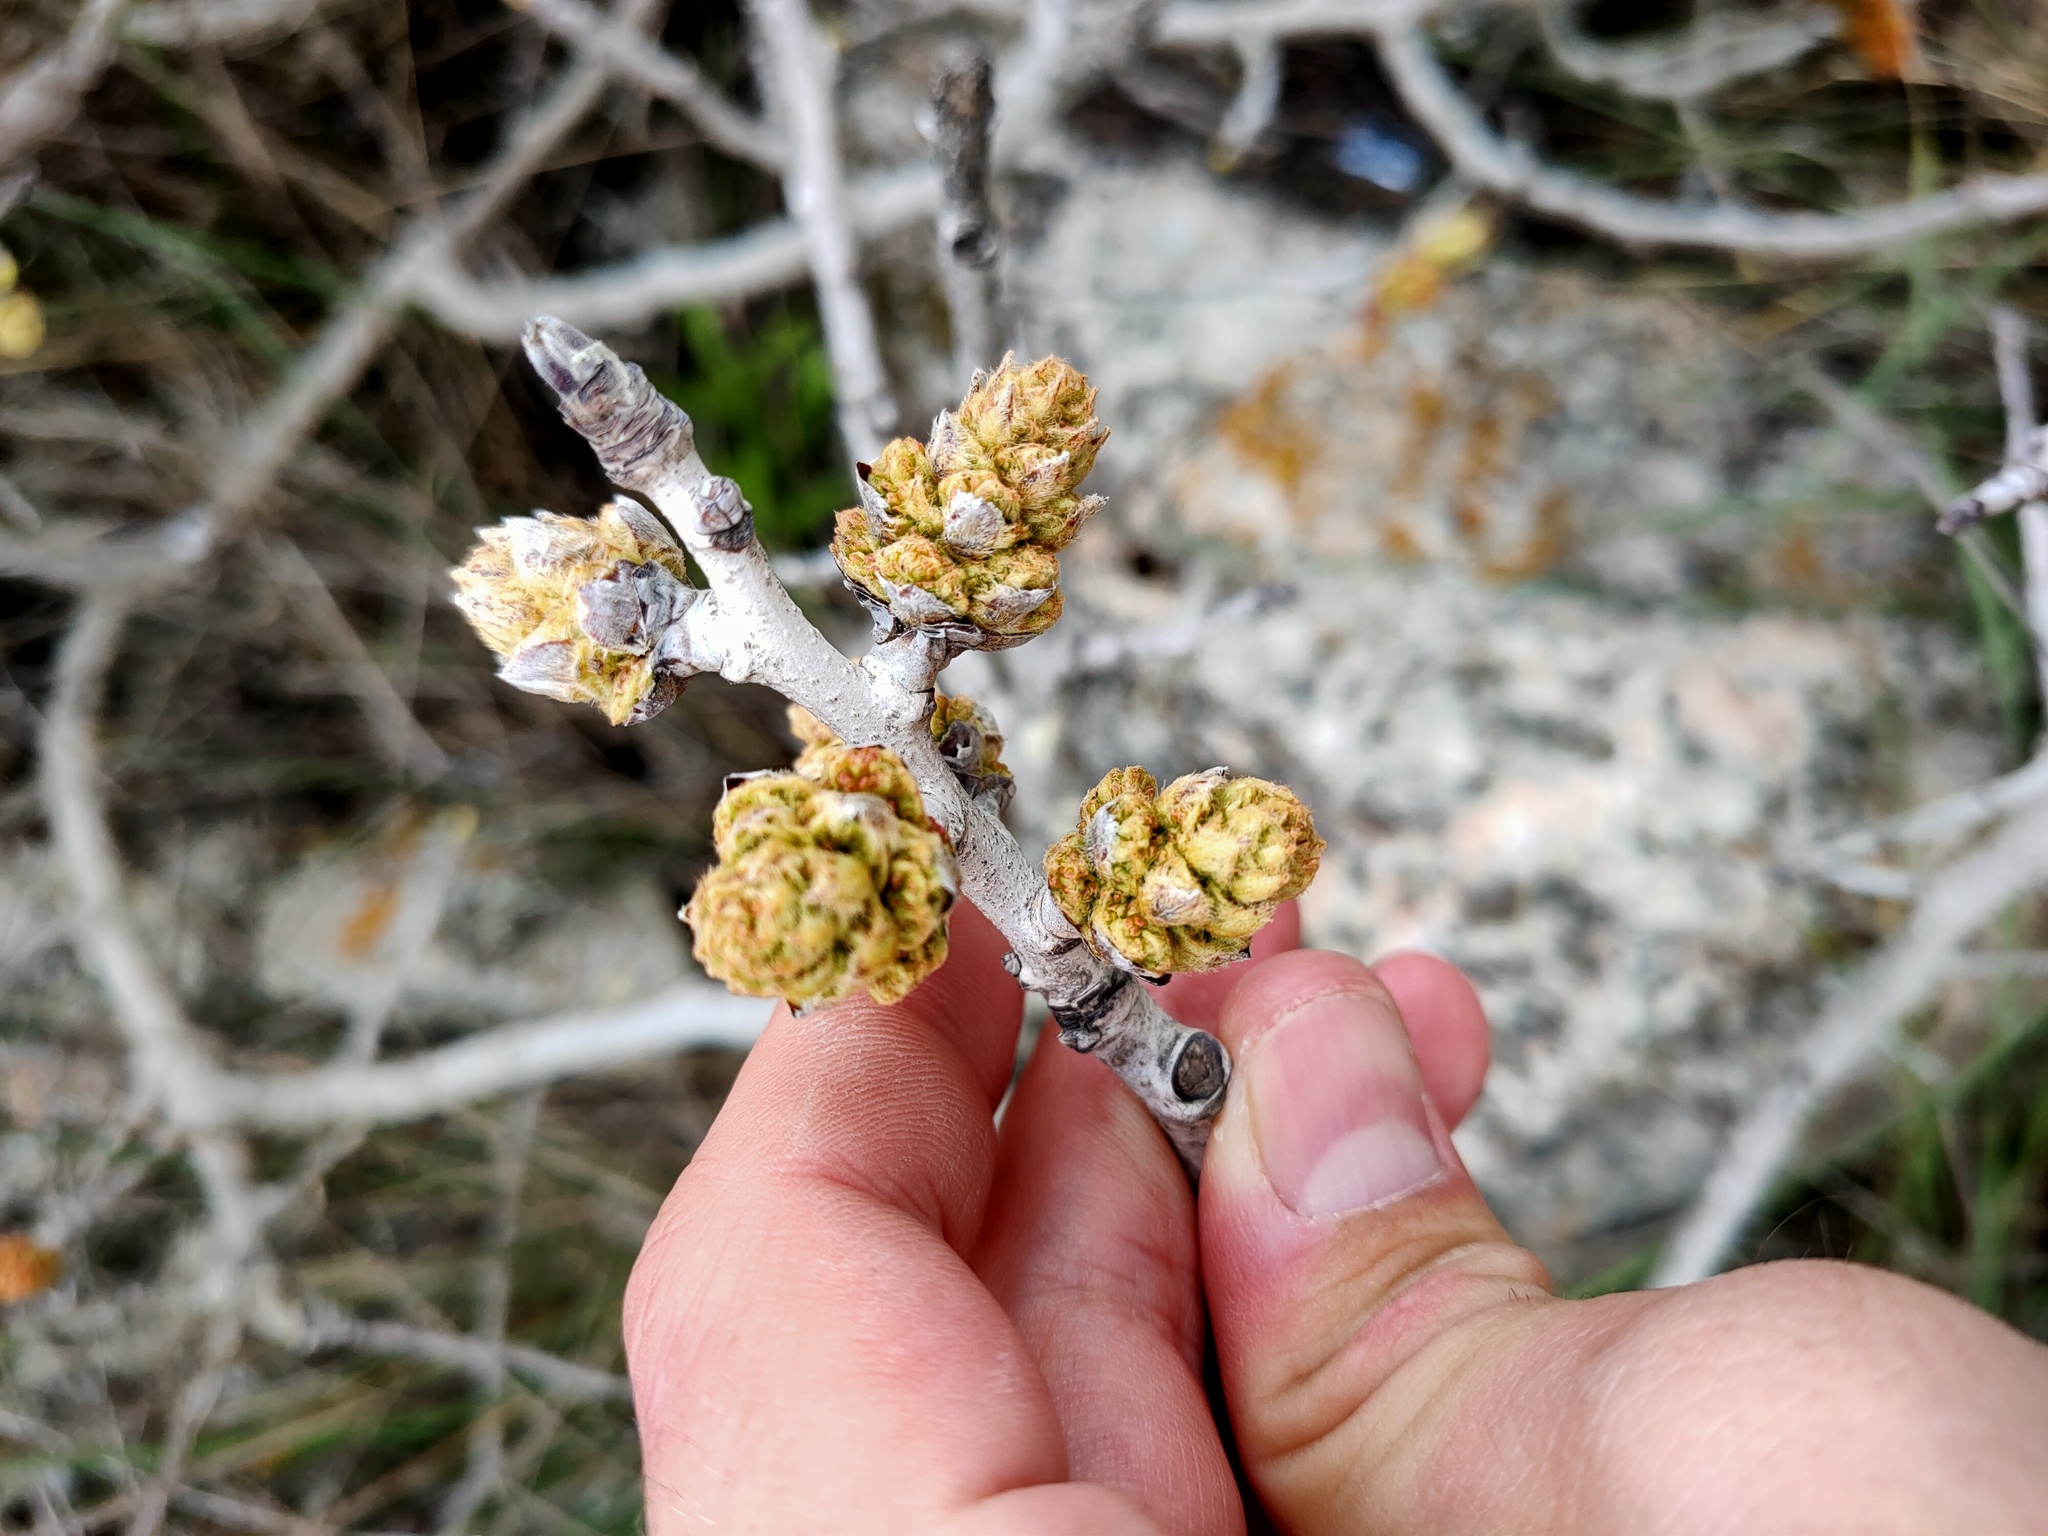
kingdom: Plantae
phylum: Tracheophyta
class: Magnoliopsida
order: Sapindales
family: Anacardiaceae
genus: Pistacia
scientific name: Pistacia atlantica
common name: Mt. atlas mastic tree
